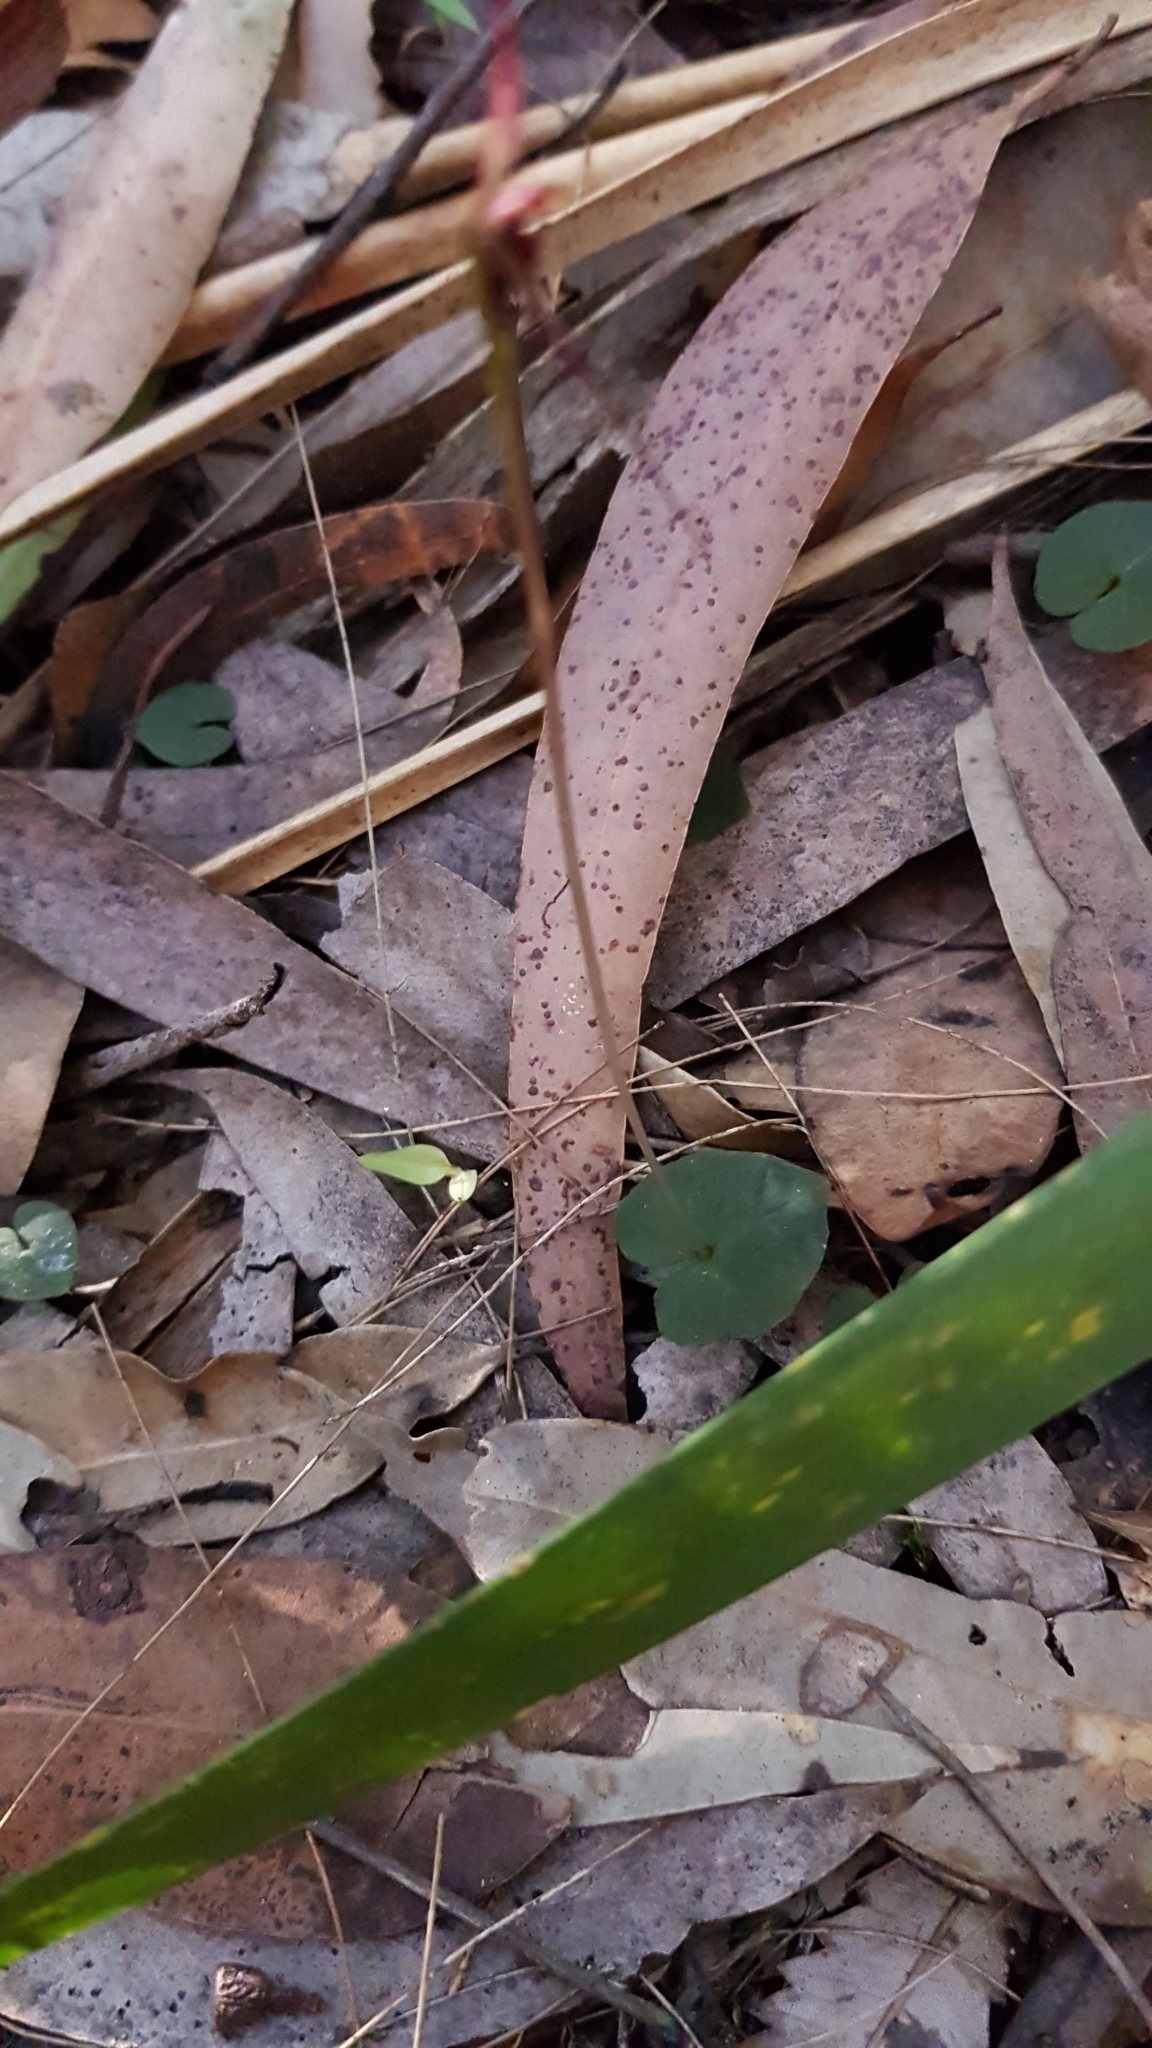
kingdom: Plantae
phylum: Tracheophyta
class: Liliopsida
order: Asparagales
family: Orchidaceae
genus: Acianthus
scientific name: Acianthus caudatus
